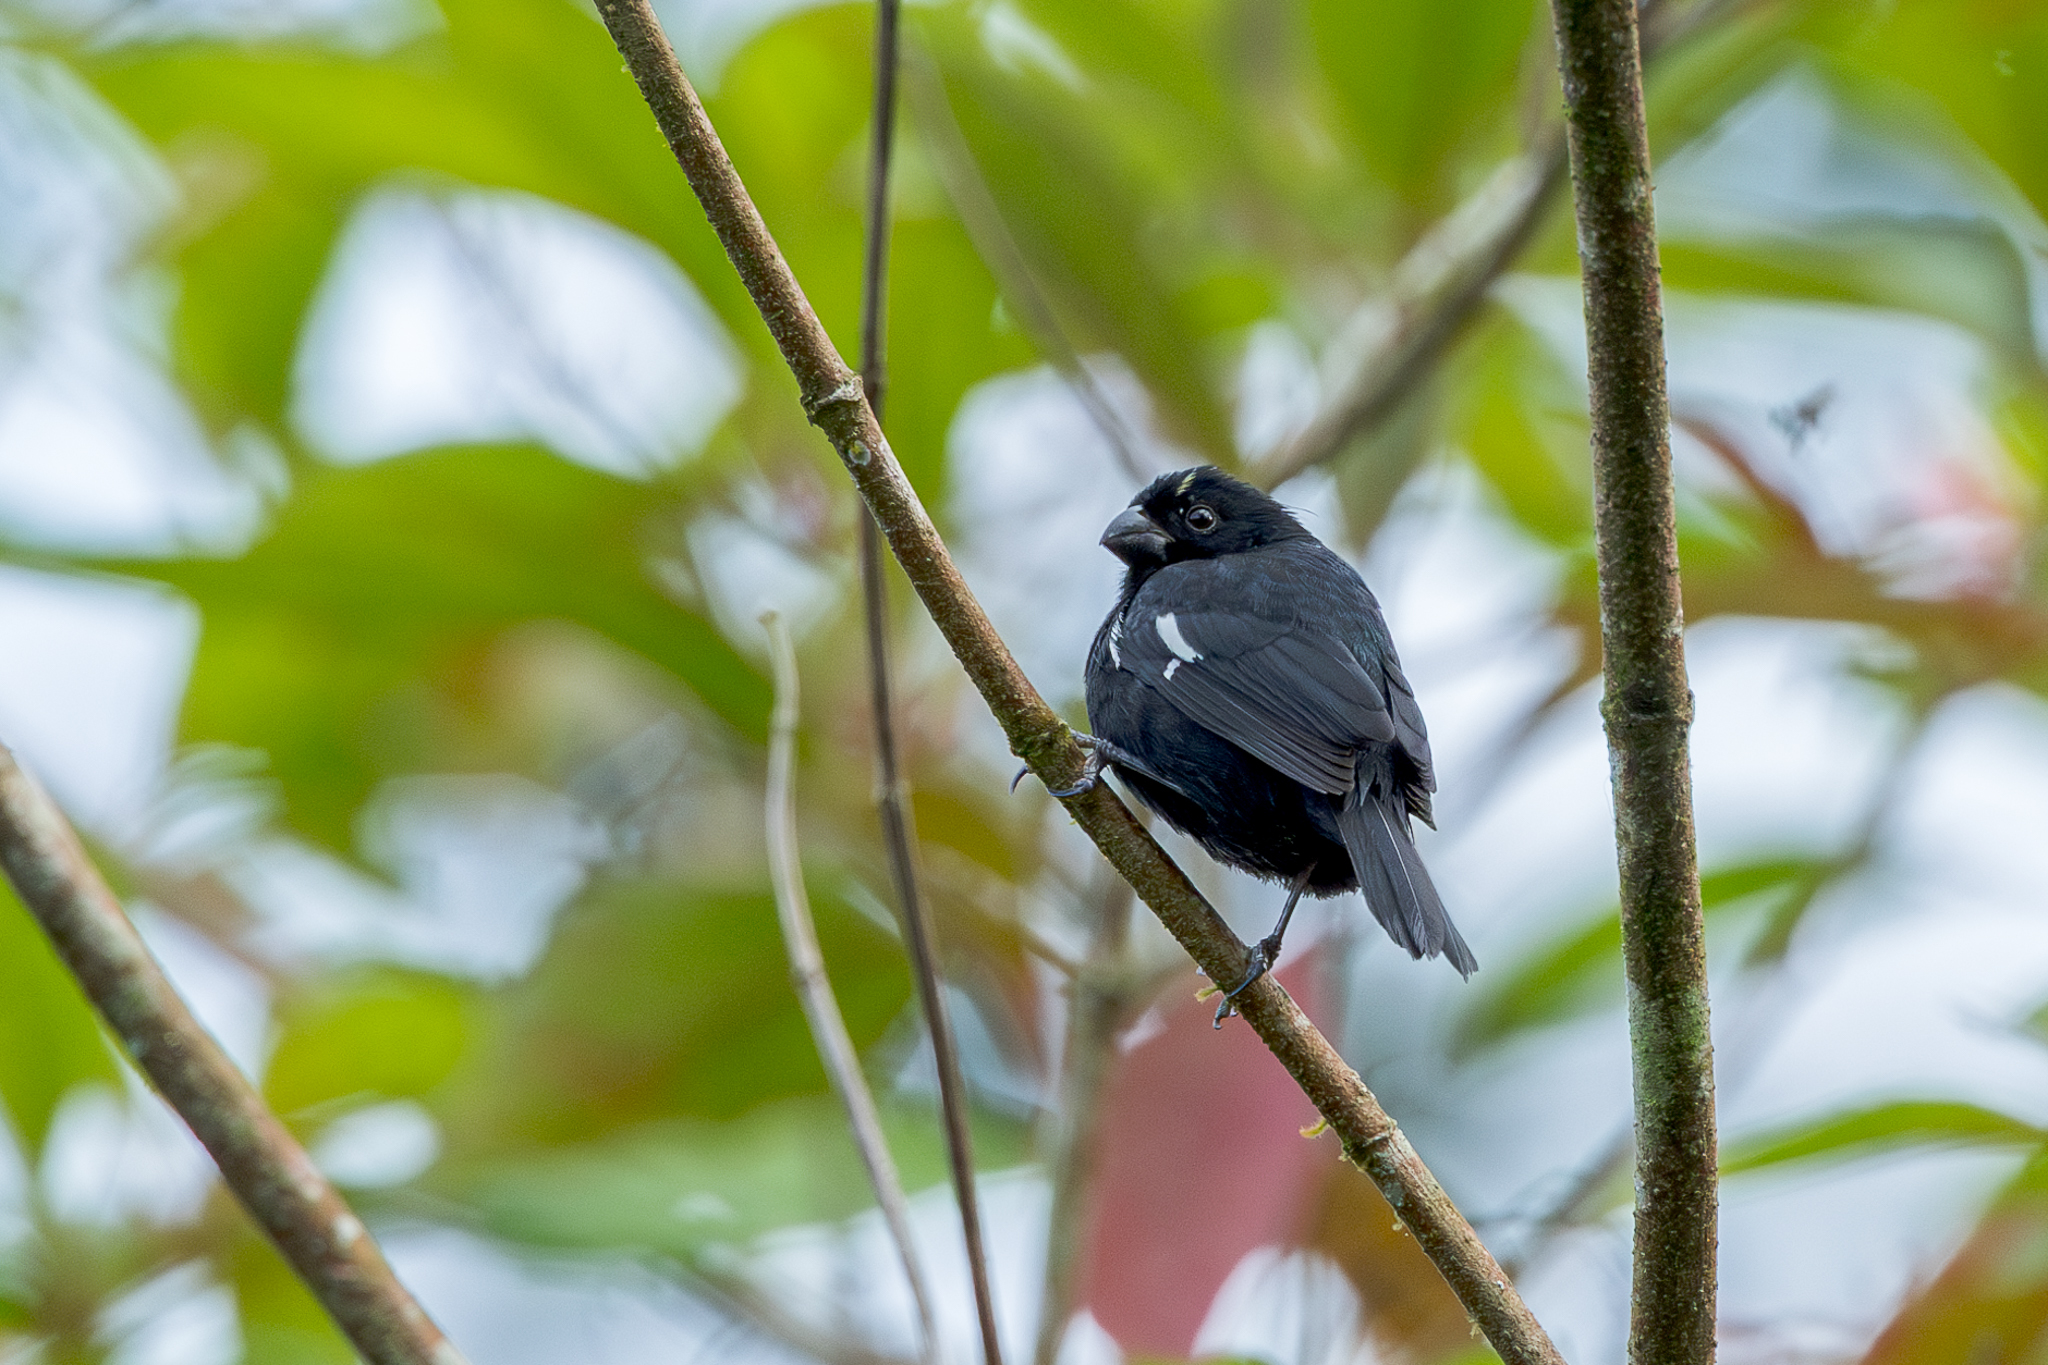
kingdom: Animalia
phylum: Chordata
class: Aves
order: Passeriformes
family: Thraupidae
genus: Sporophila
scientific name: Sporophila corvina
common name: Variable seedeater
